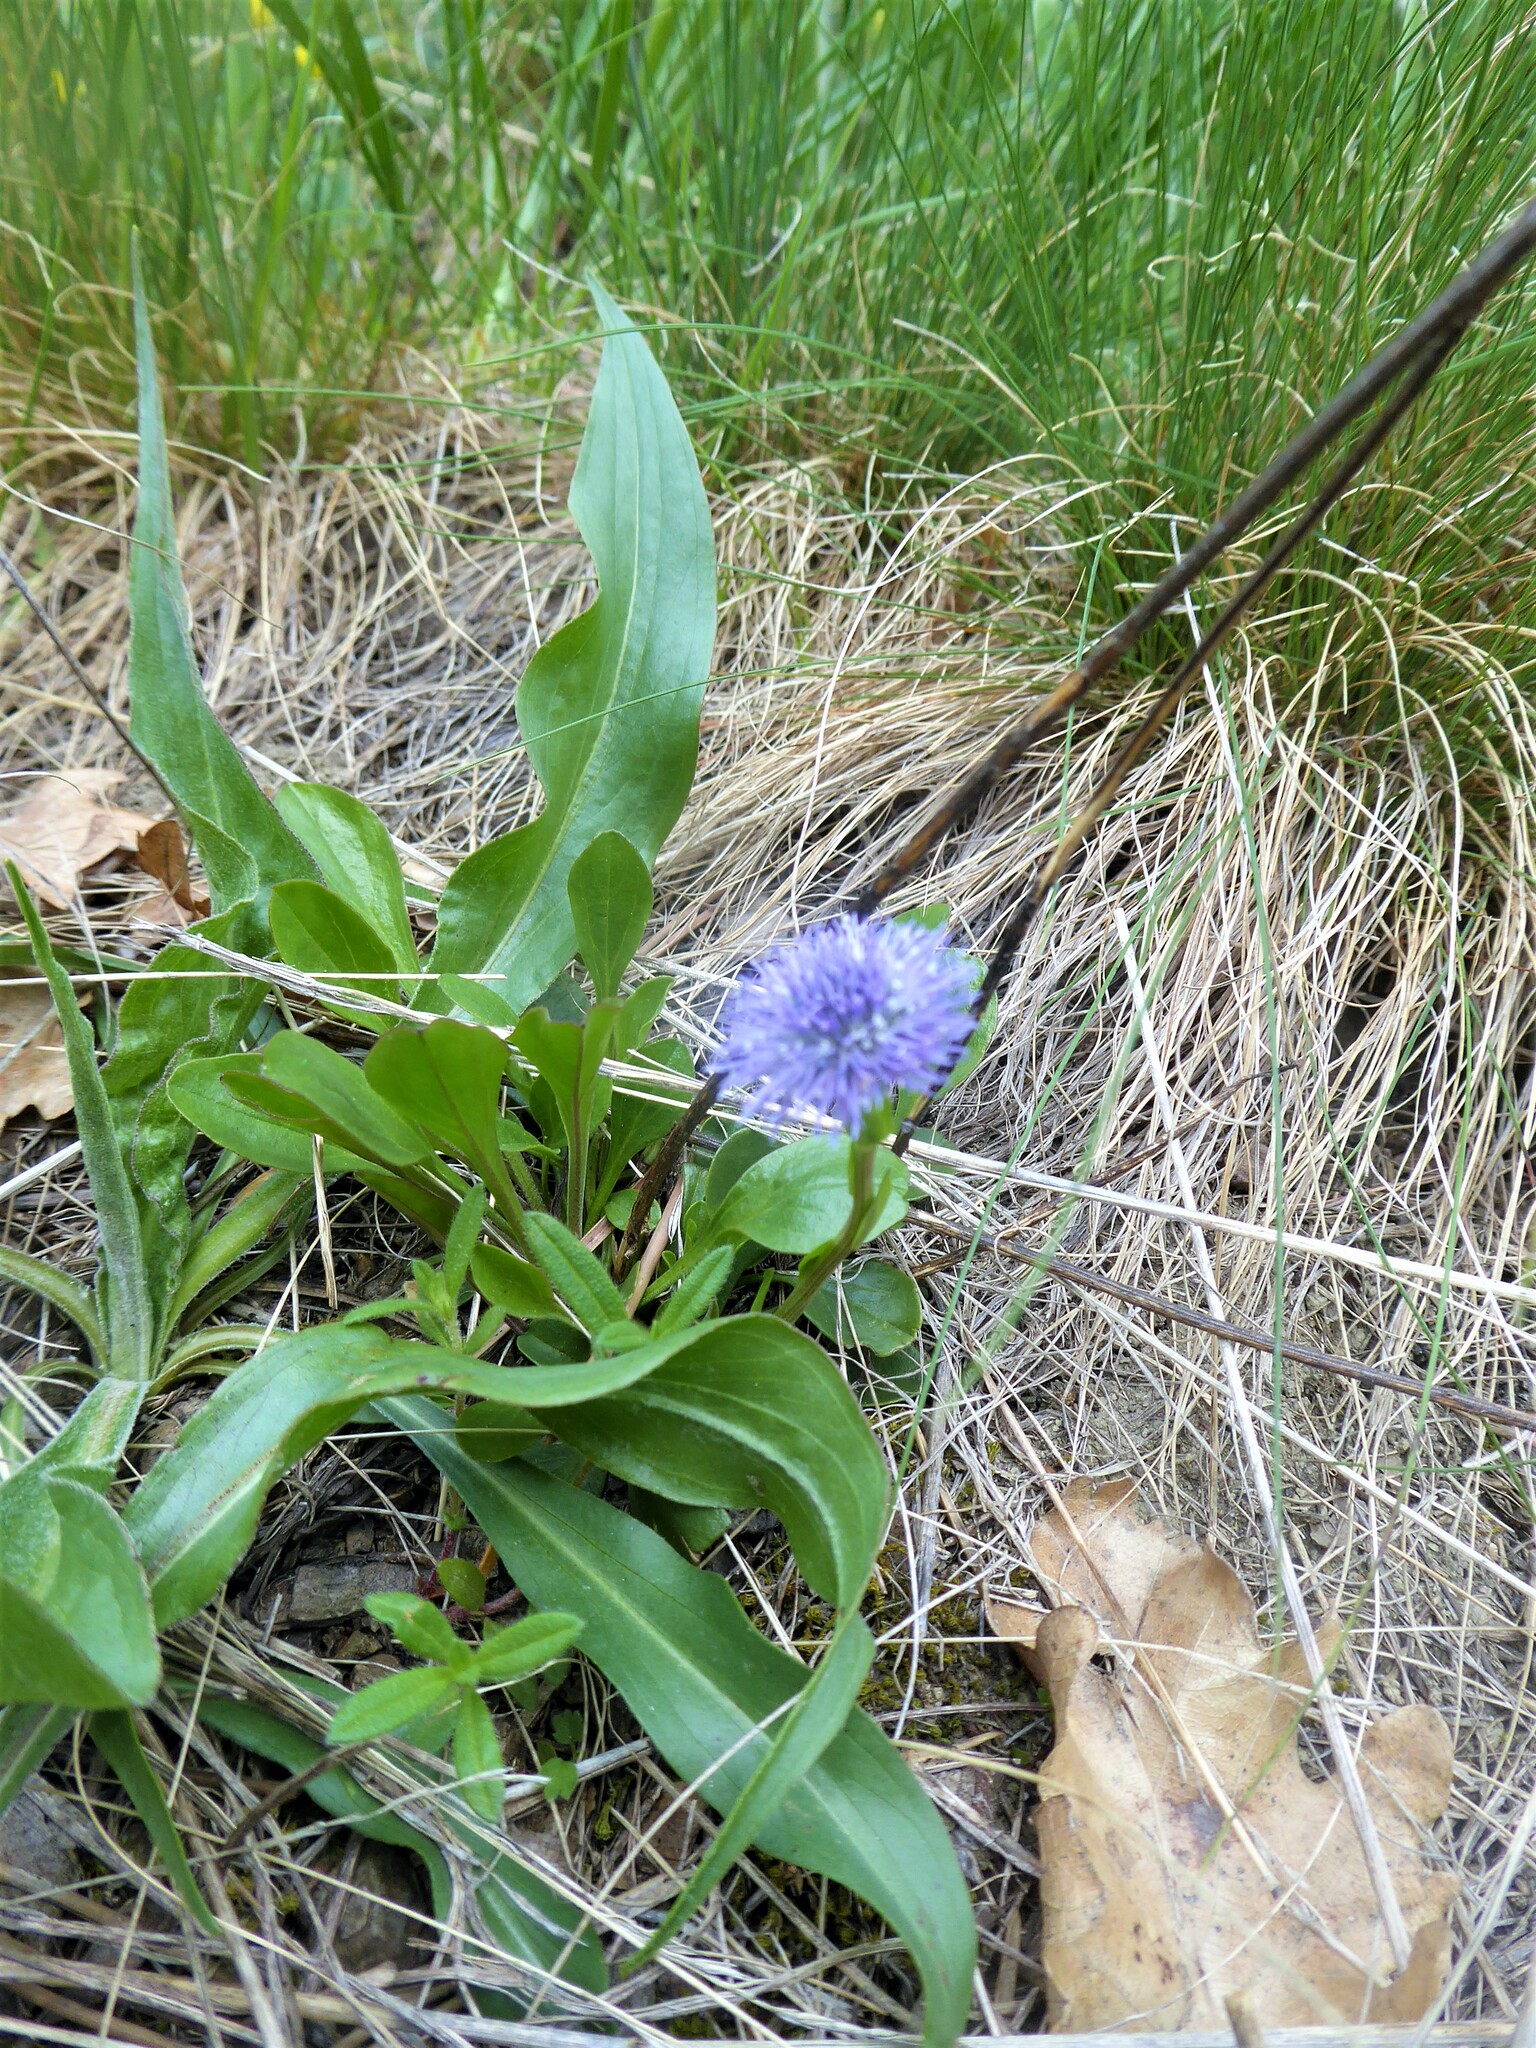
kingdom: Plantae
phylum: Tracheophyta
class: Magnoliopsida
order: Lamiales
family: Plantaginaceae
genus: Globularia
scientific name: Globularia bisnagarica
